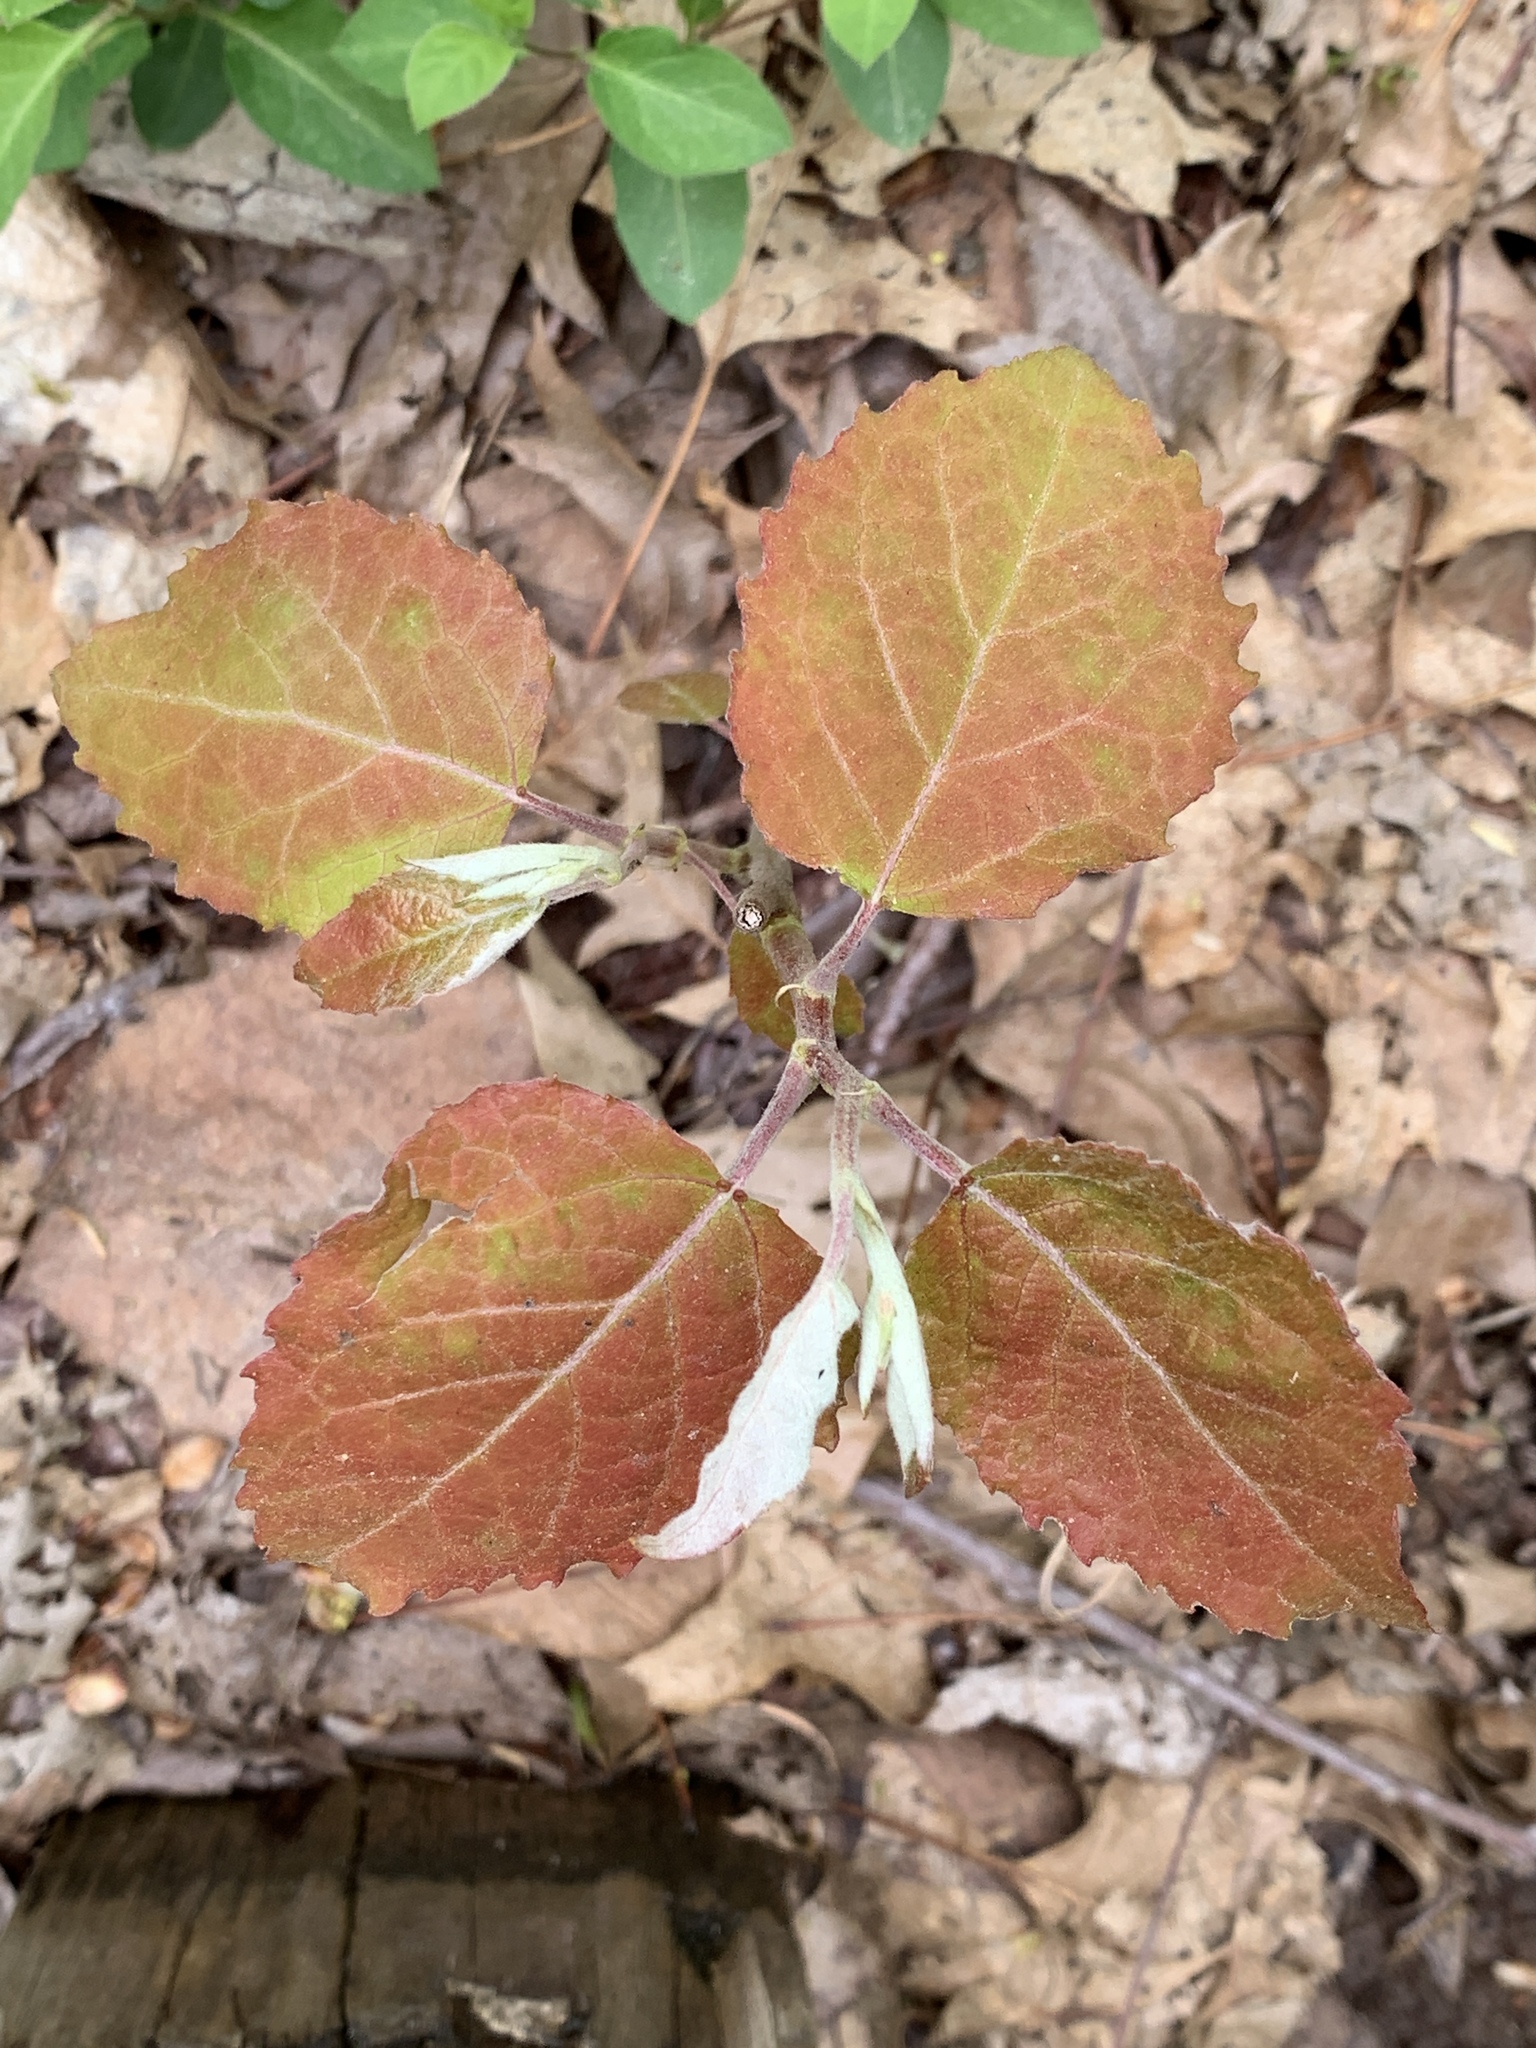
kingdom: Plantae
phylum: Tracheophyta
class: Magnoliopsida
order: Malpighiales
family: Salicaceae
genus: Populus
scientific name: Populus grandidentata
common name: Bigtooth aspen
